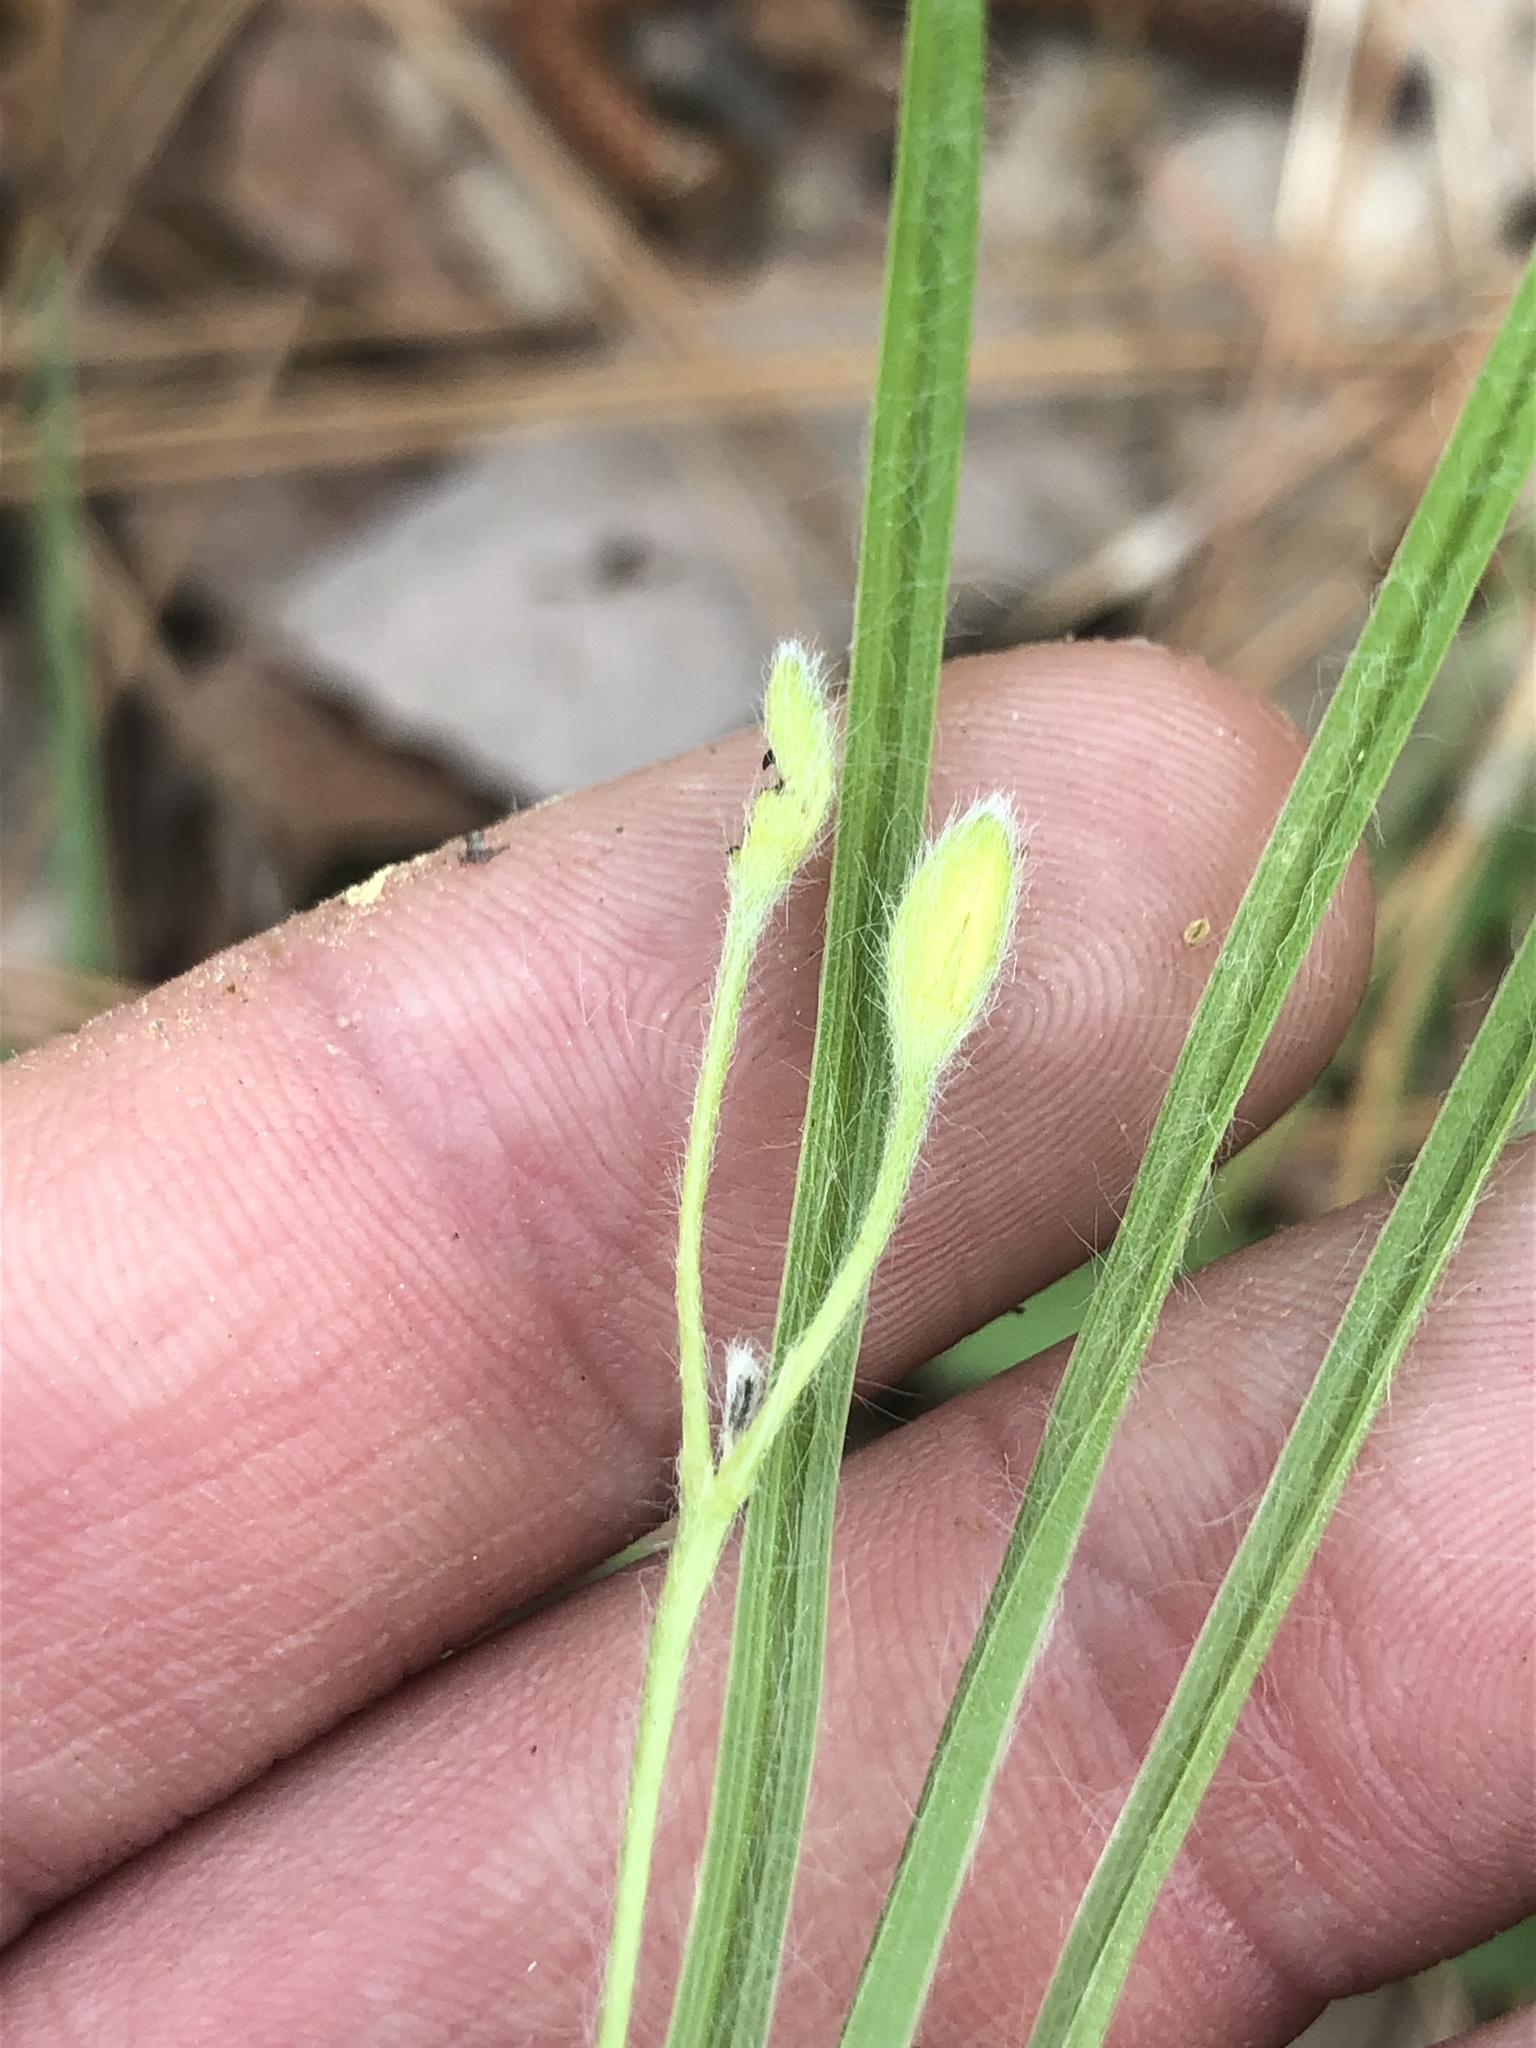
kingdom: Plantae
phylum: Tracheophyta
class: Liliopsida
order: Asparagales
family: Hypoxidaceae
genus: Hypoxis
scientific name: Hypoxis hirsuta
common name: Common goldstar
